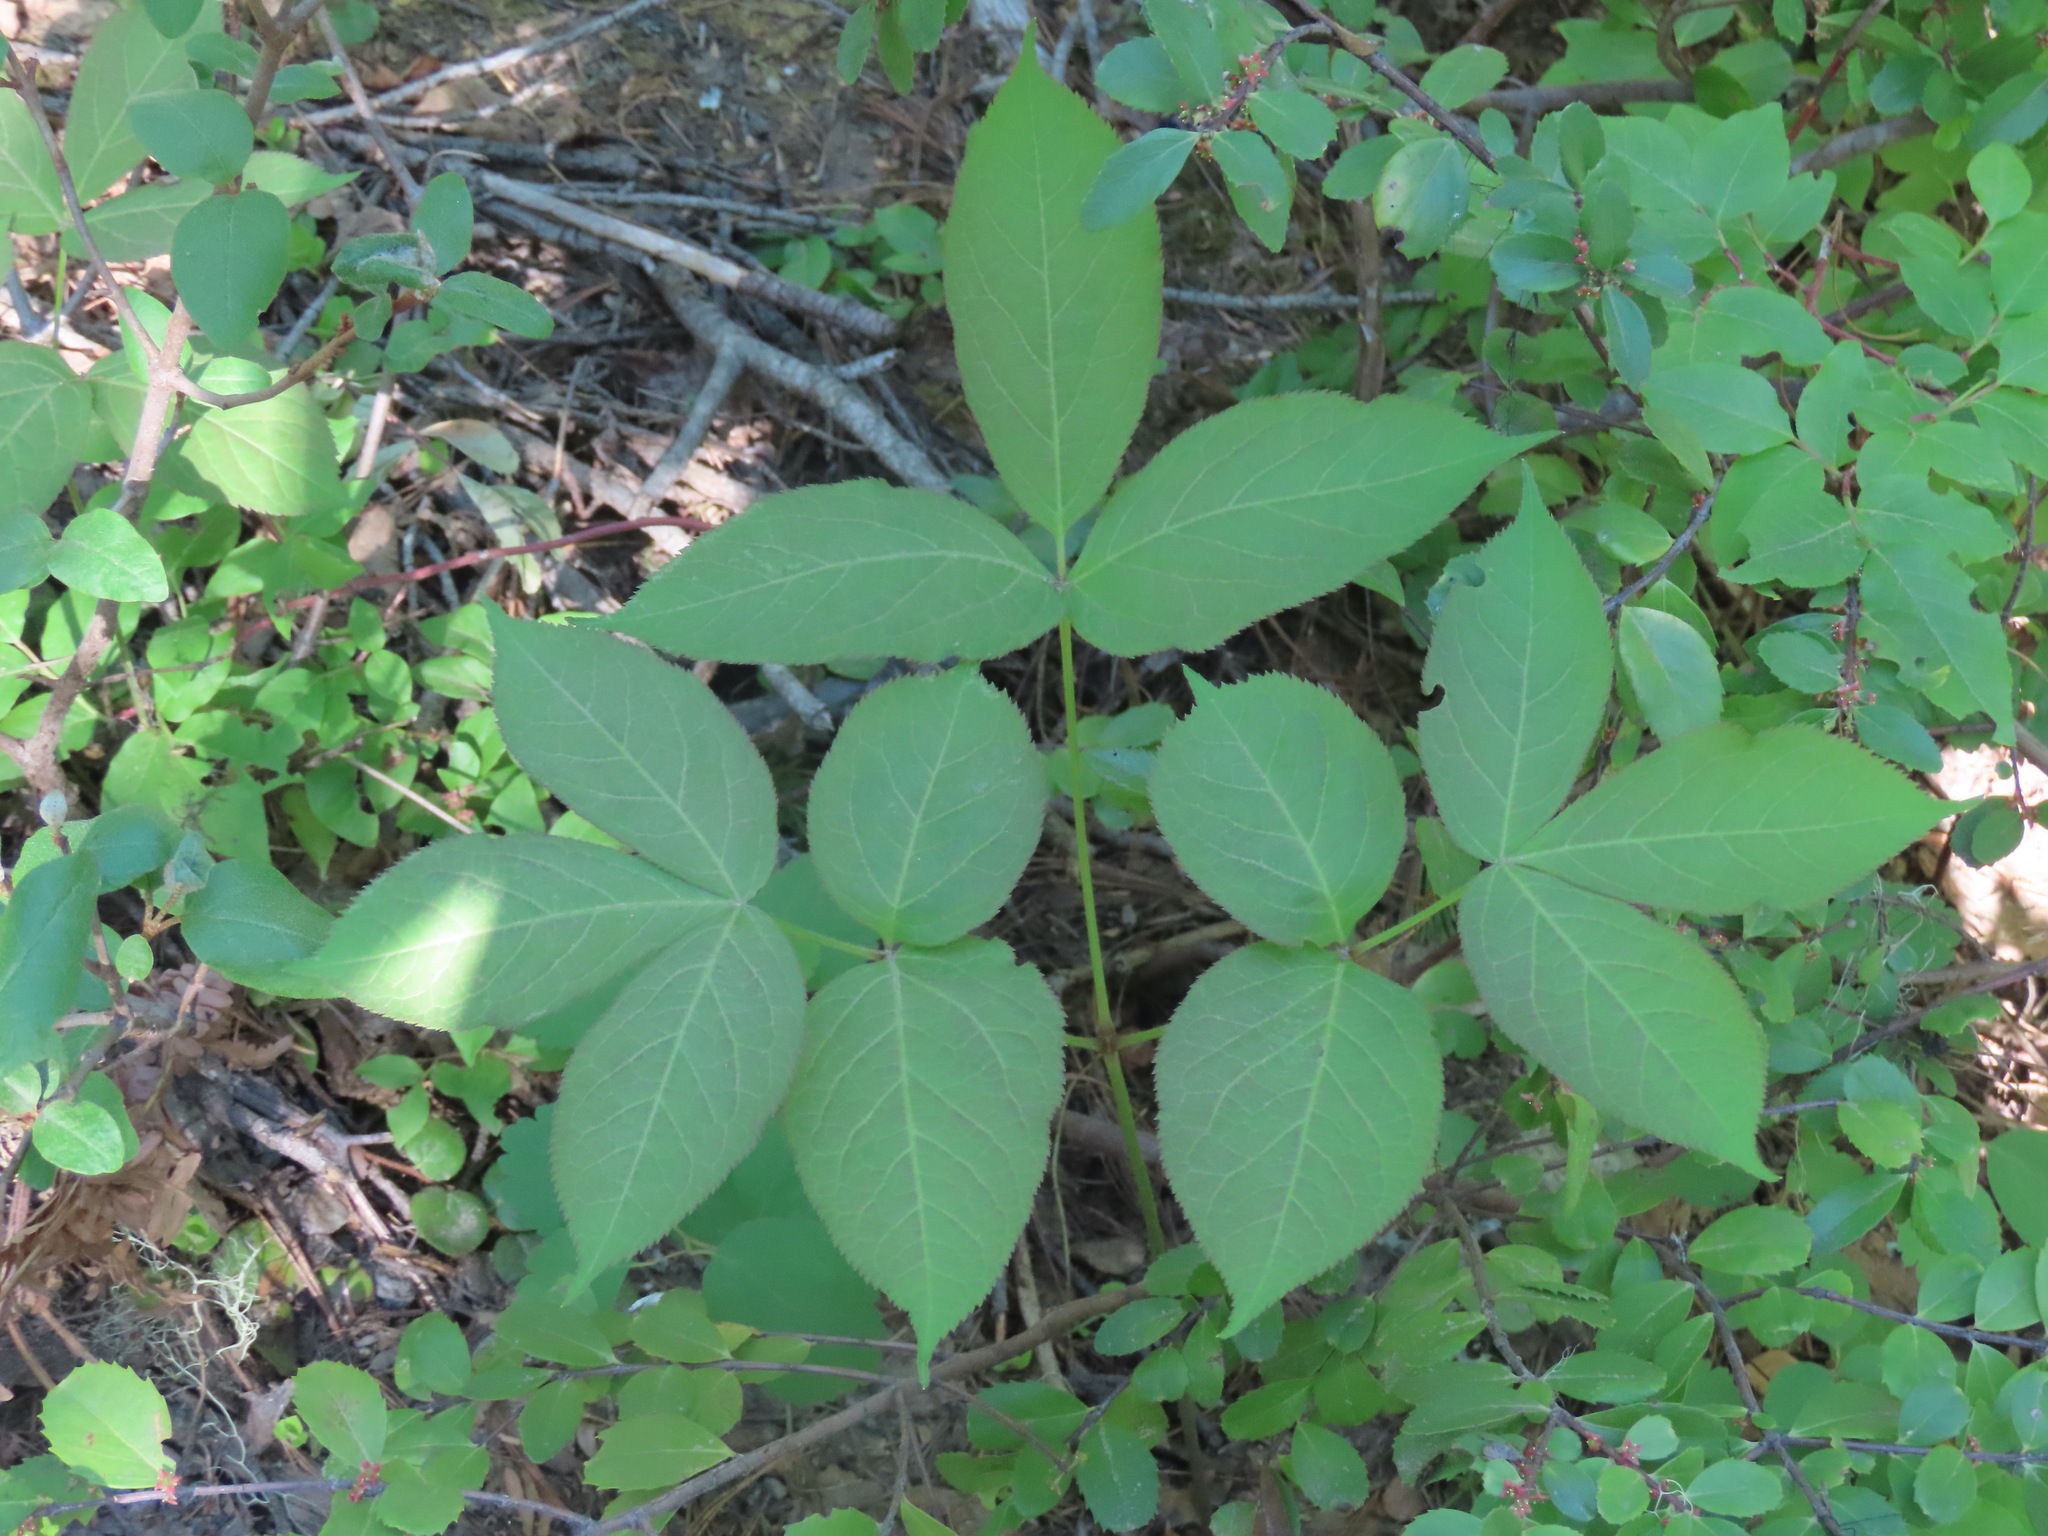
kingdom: Plantae
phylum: Tracheophyta
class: Magnoliopsida
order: Apiales
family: Araliaceae
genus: Aralia
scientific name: Aralia nudicaulis
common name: Wild sarsaparilla
